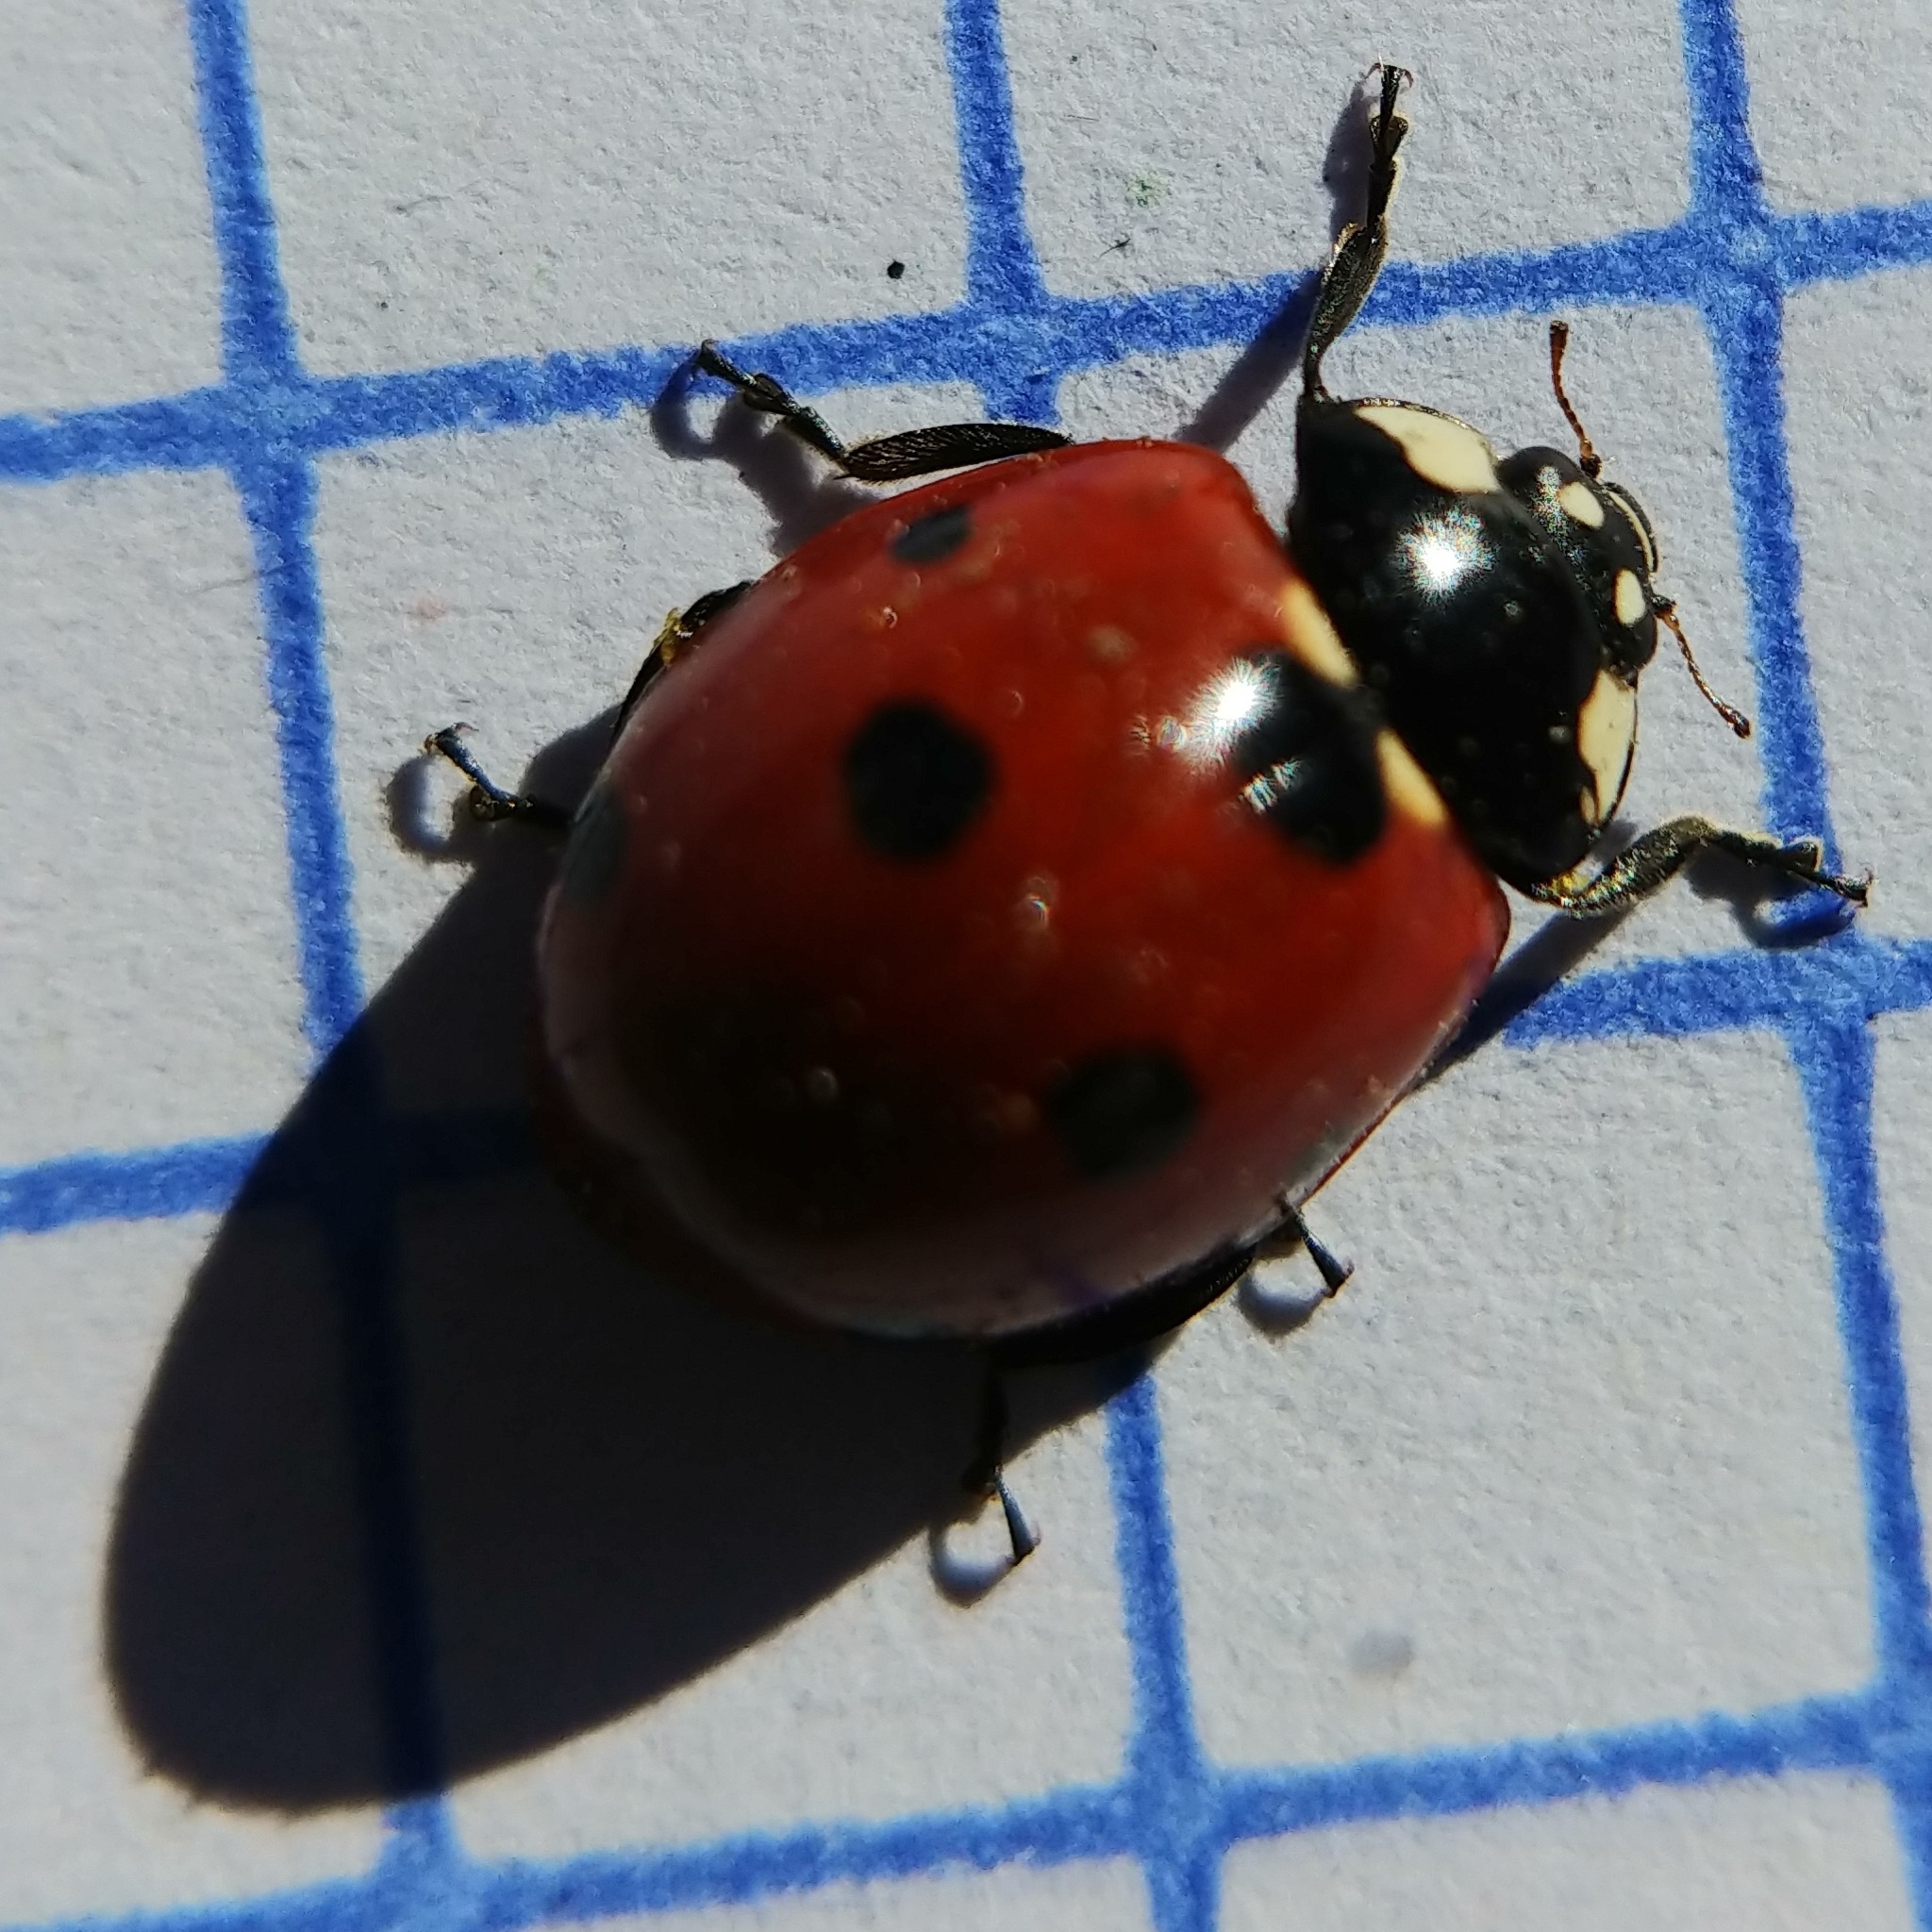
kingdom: Animalia
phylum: Arthropoda
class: Insecta
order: Coleoptera
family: Coccinellidae
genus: Coccinella
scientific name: Coccinella septempunctata
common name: Sevenspotted lady beetle
